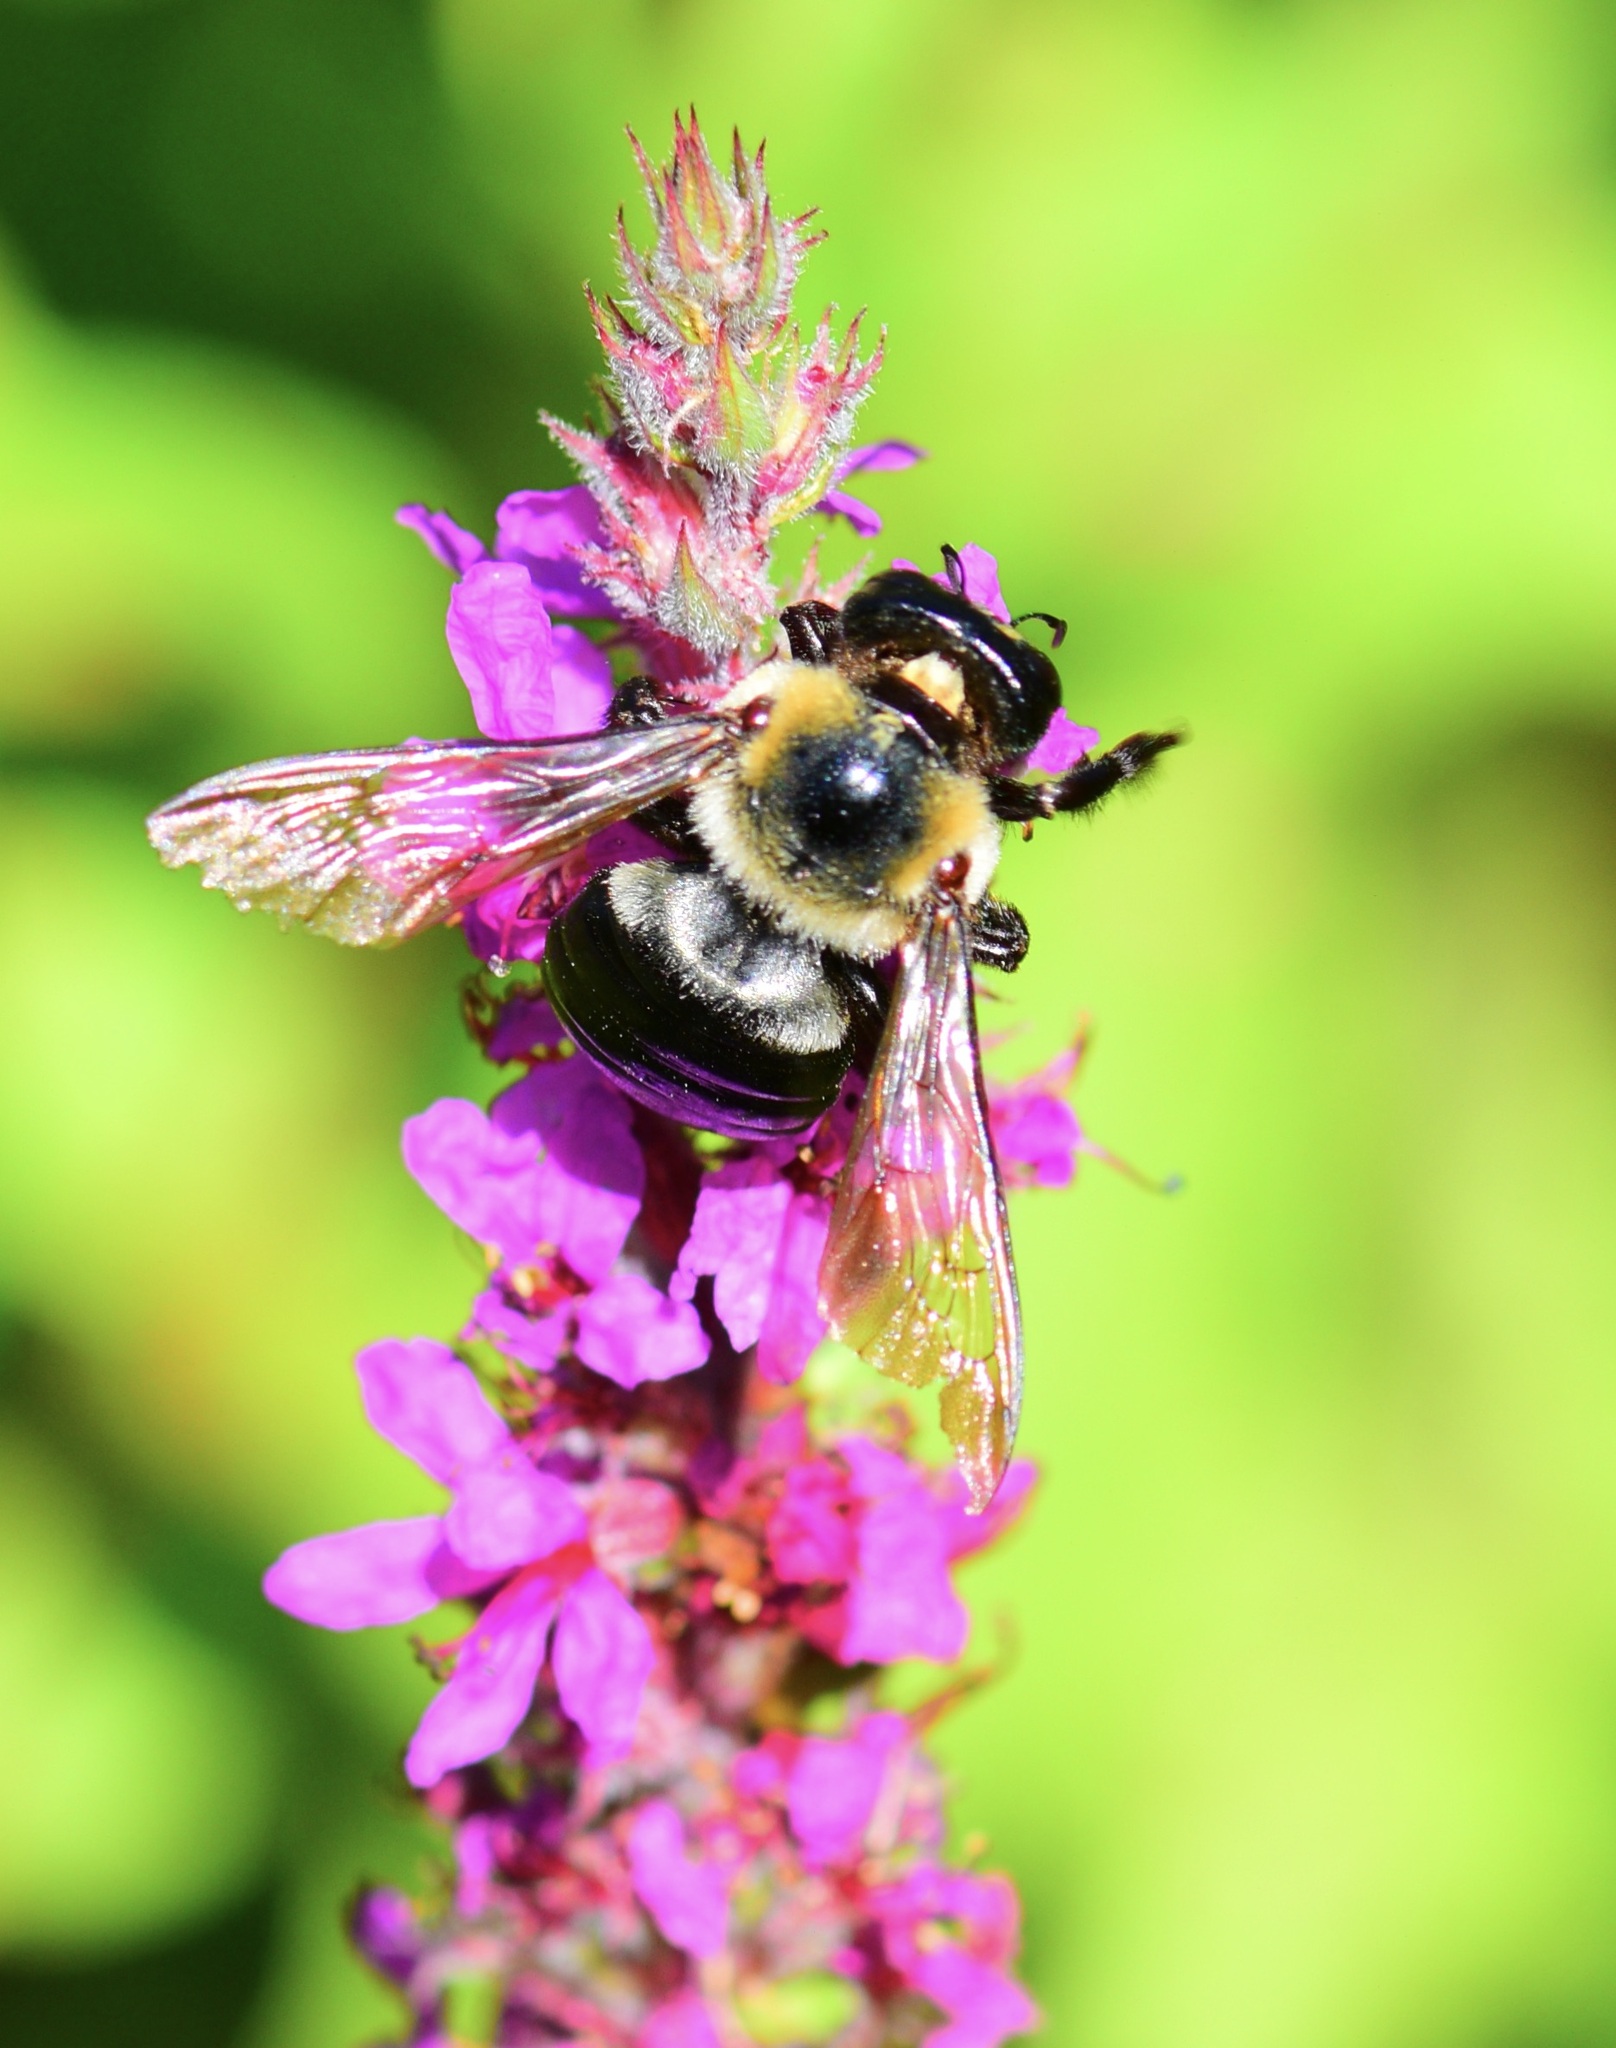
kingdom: Animalia
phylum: Arthropoda
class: Insecta
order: Hymenoptera
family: Apidae
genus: Xylocopa
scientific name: Xylocopa virginica
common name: Carpenter bee
